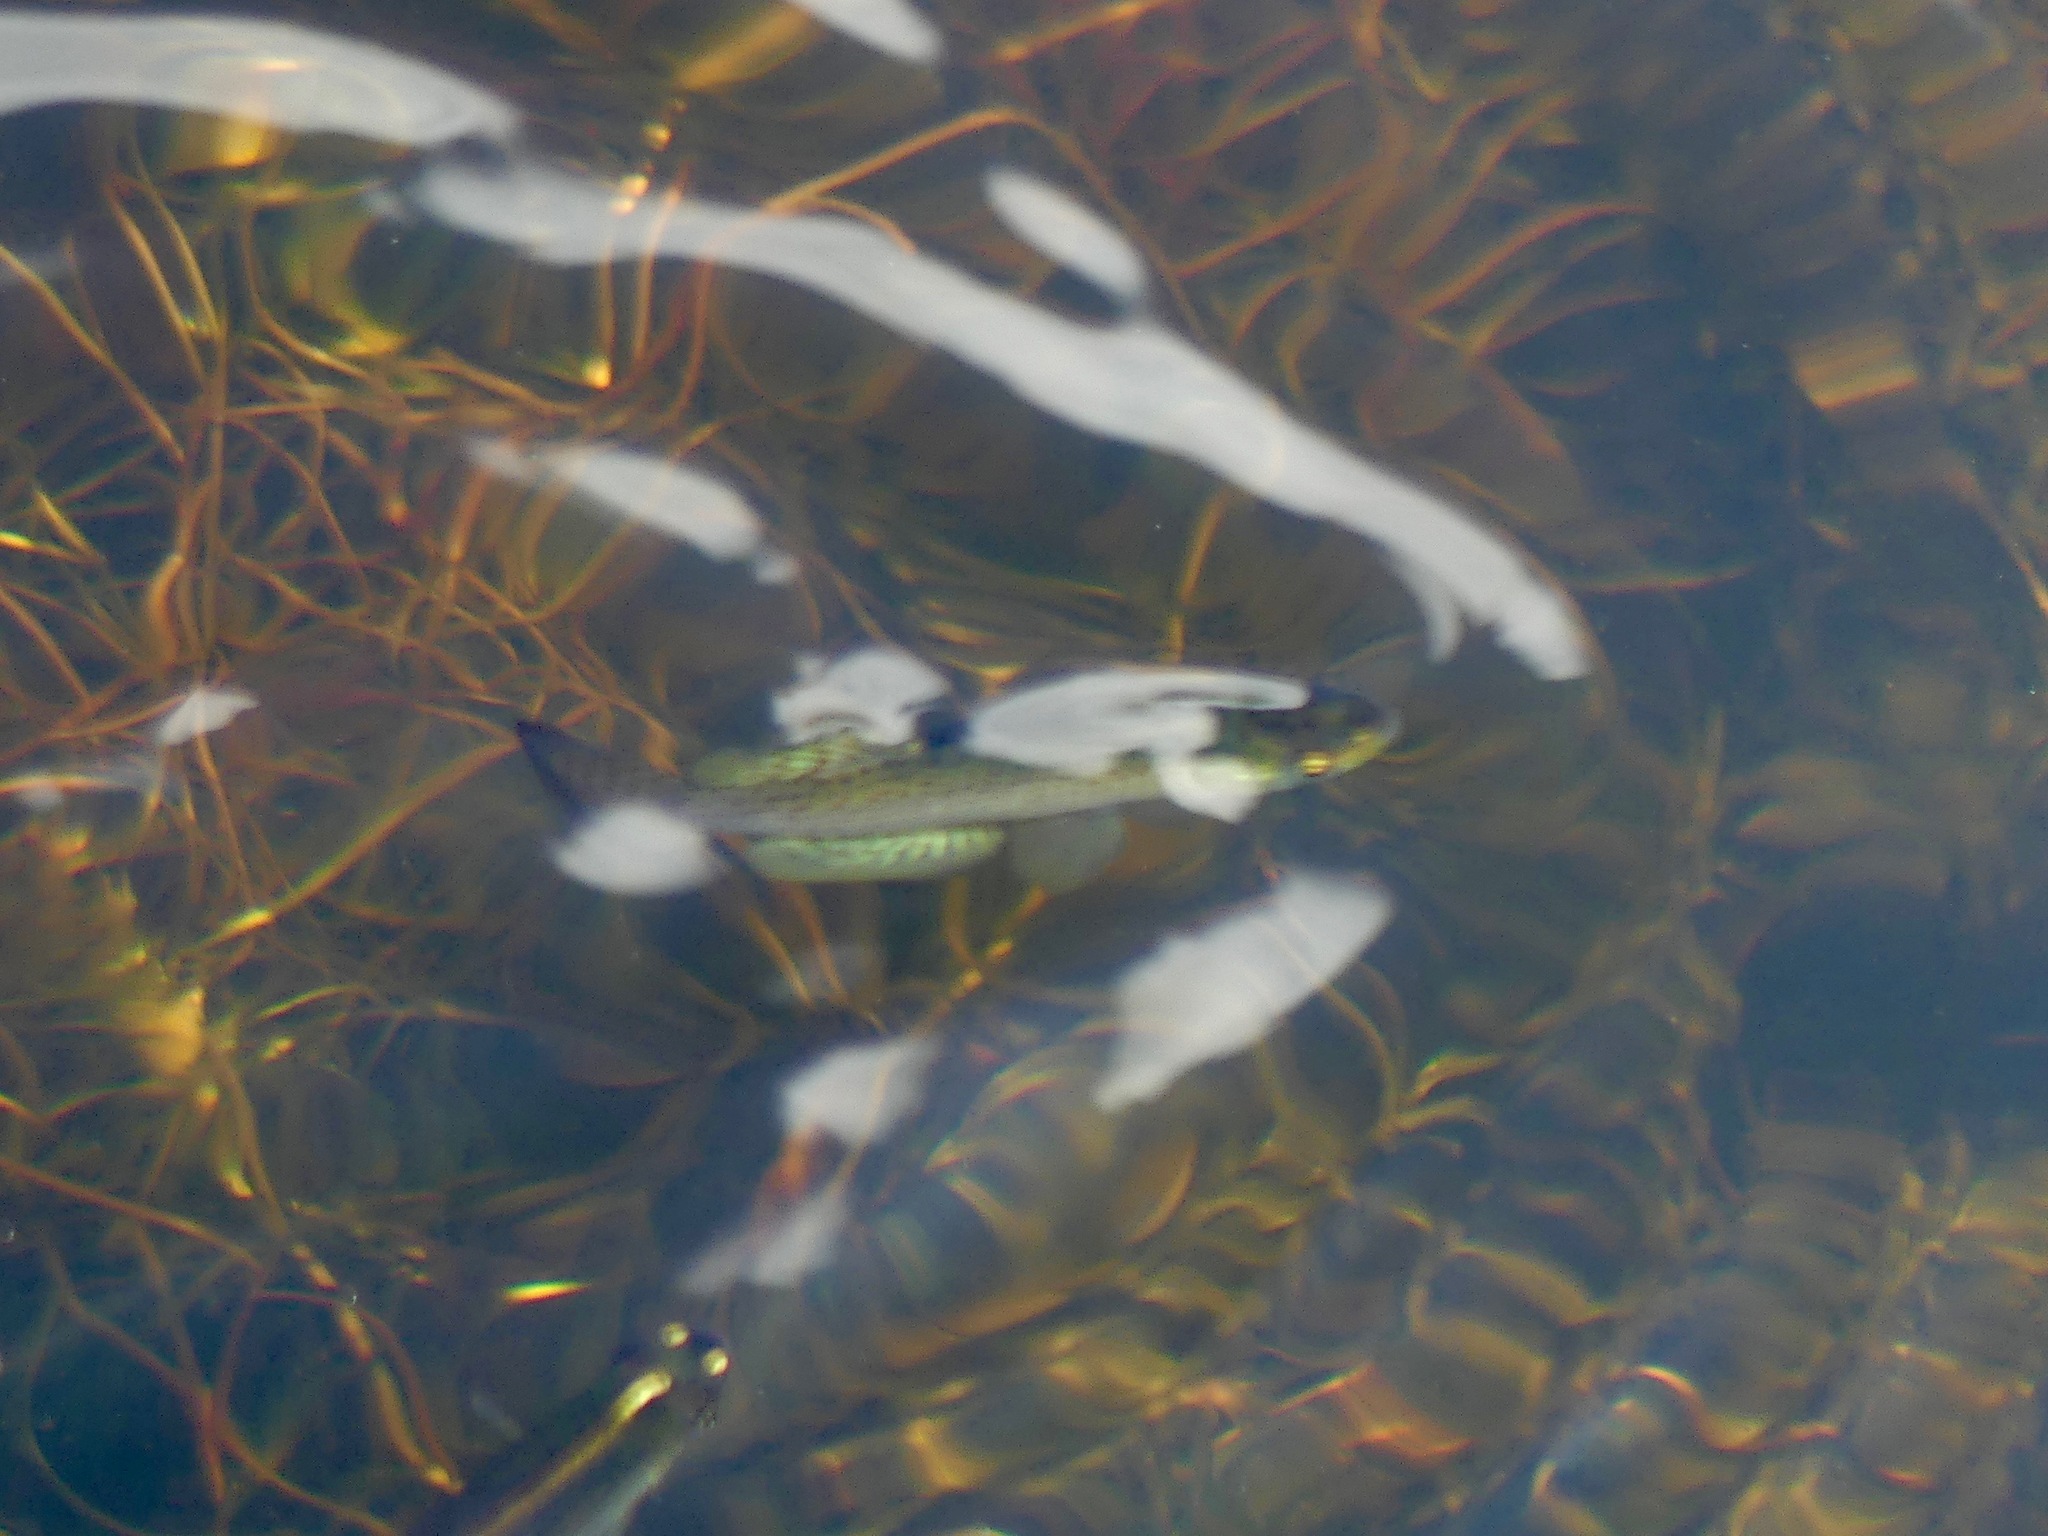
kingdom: Animalia
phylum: Chordata
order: Cyprinodontiformes
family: Fundulidae
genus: Fundulus
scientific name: Fundulus catenatus
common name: Northern studfish
